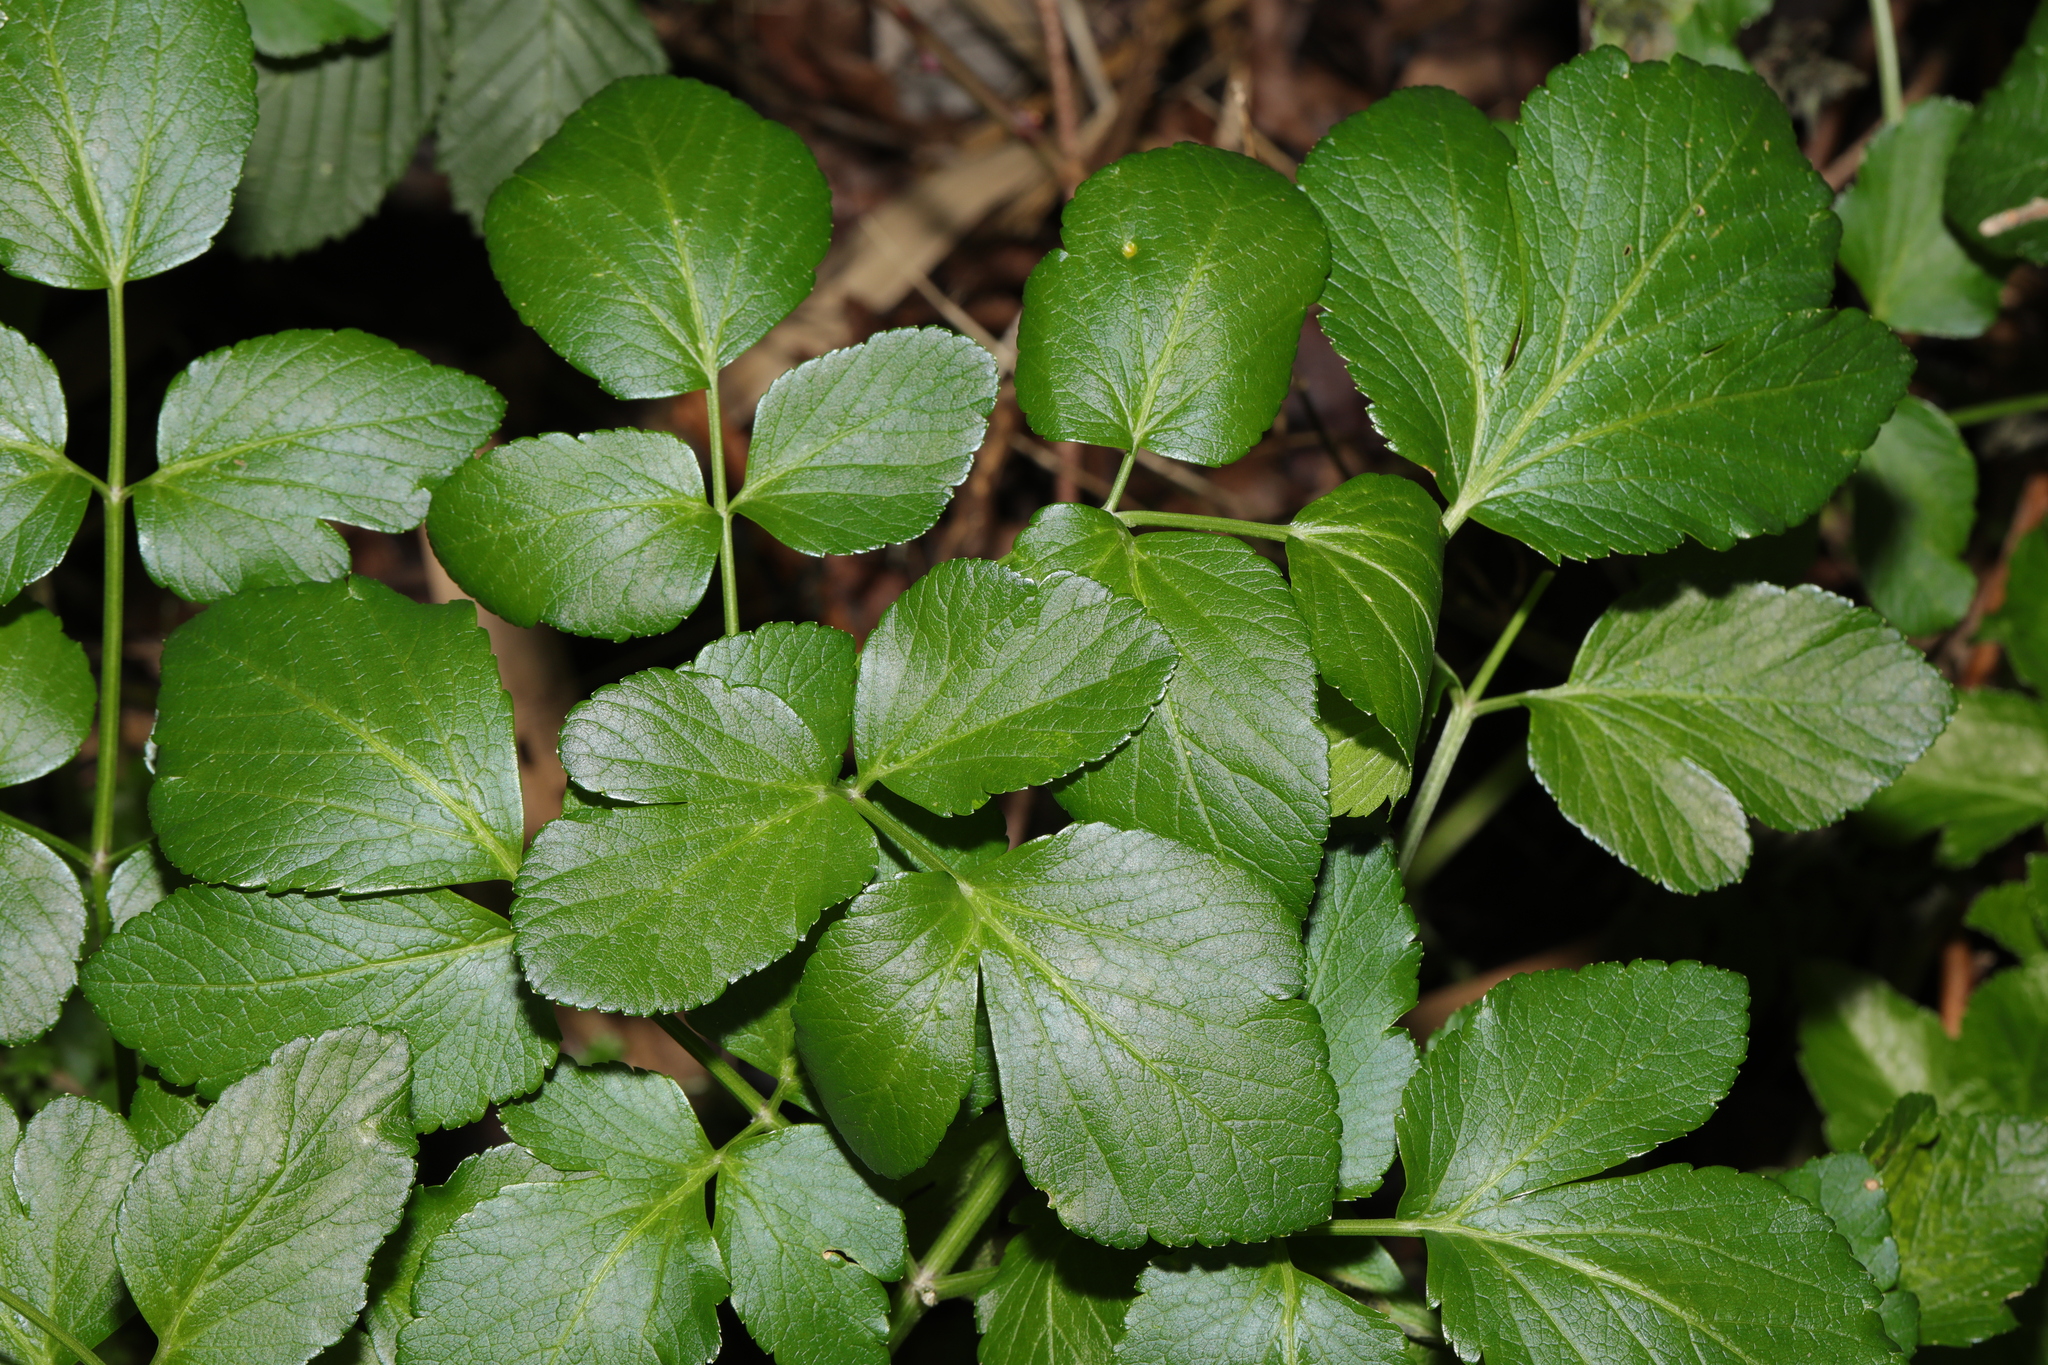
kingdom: Plantae
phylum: Tracheophyta
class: Magnoliopsida
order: Apiales
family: Apiaceae
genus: Smyrnium
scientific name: Smyrnium olusatrum
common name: Alexanders
